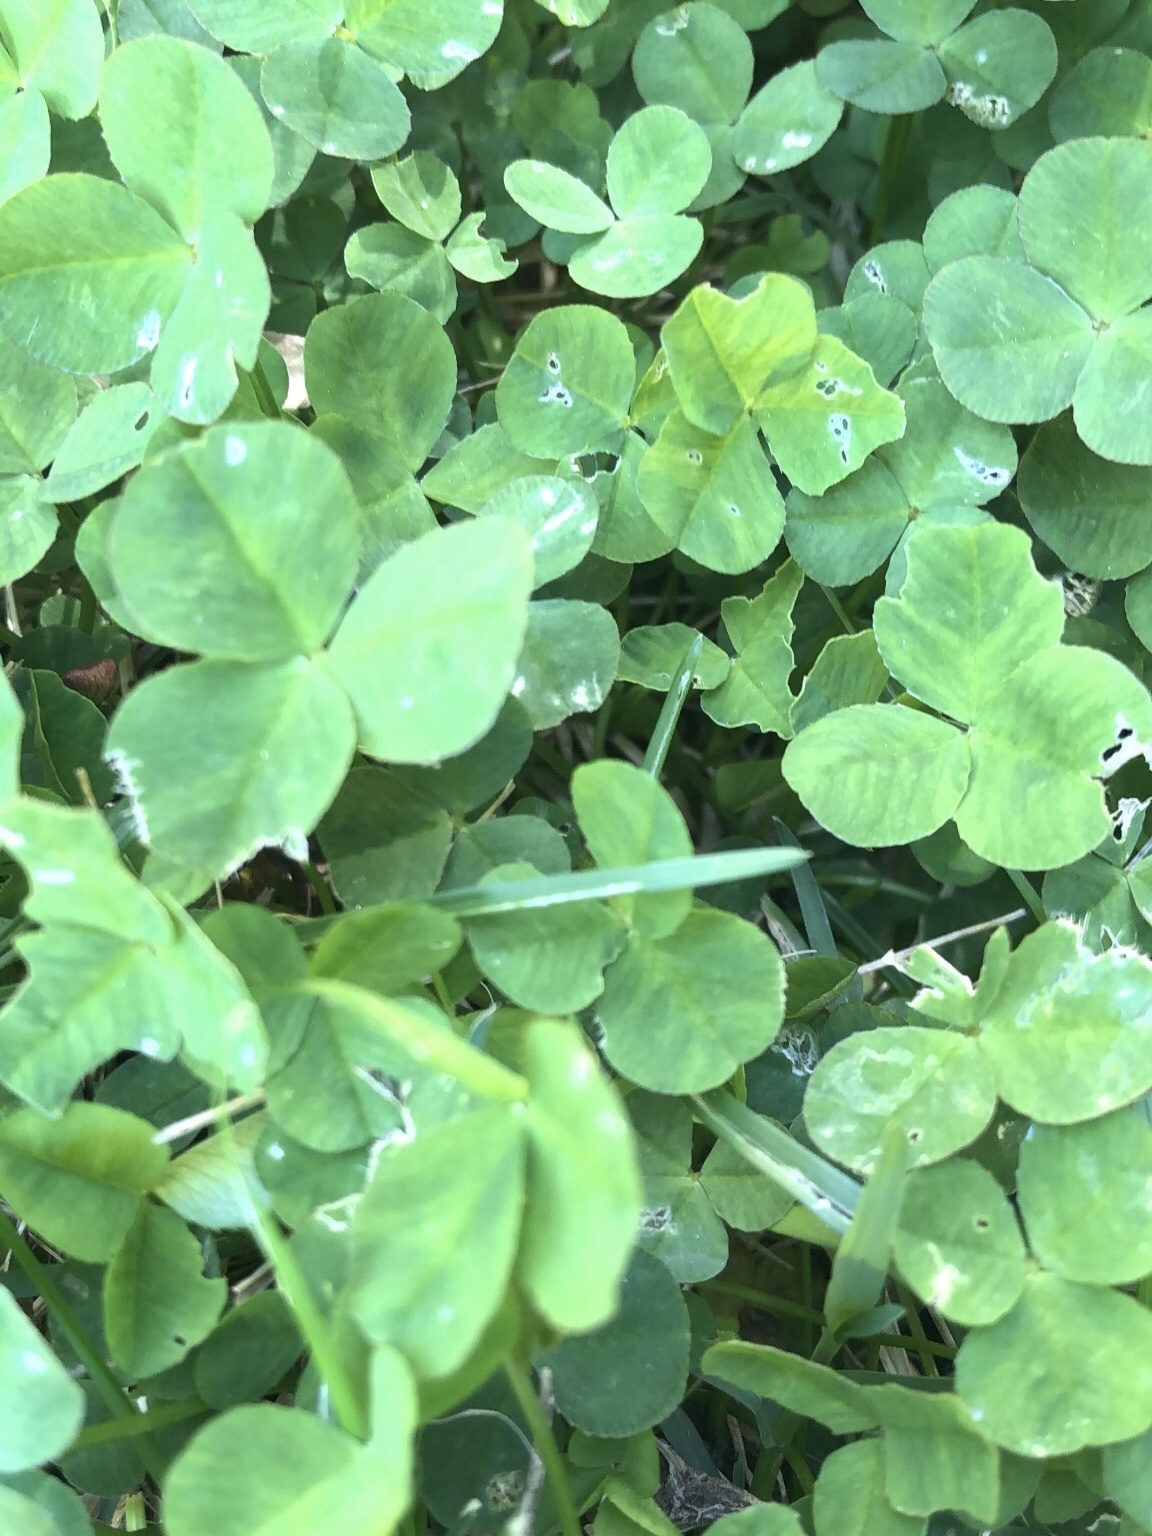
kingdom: Plantae
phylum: Tracheophyta
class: Magnoliopsida
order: Fabales
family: Fabaceae
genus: Trifolium
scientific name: Trifolium repens
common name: White clover
